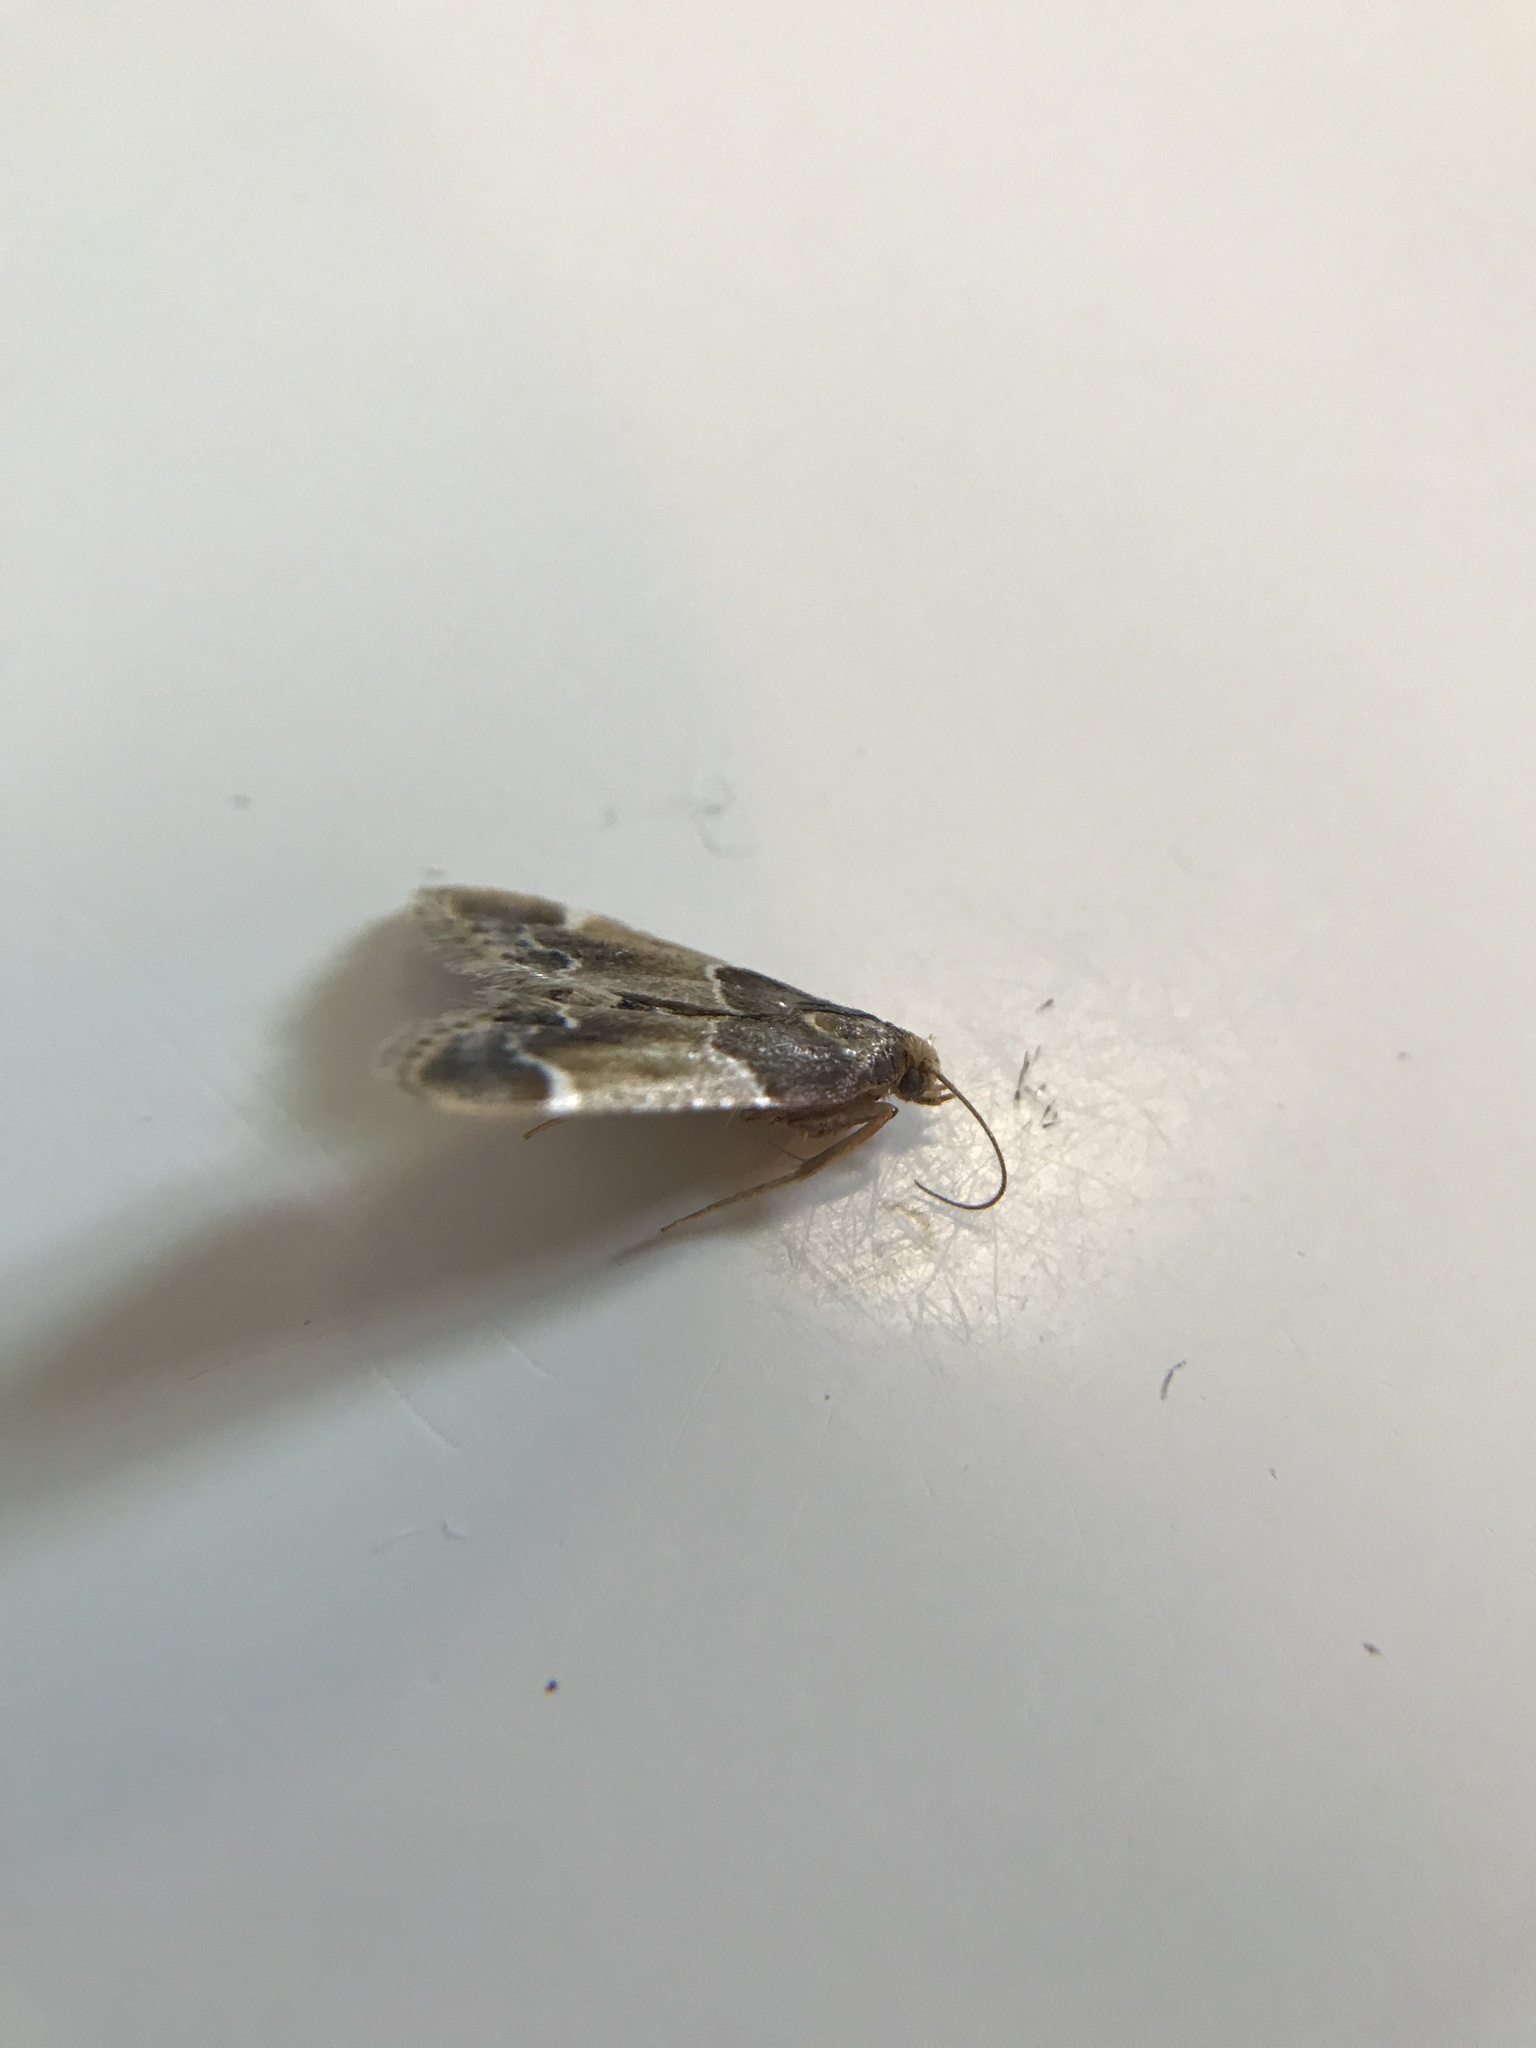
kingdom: Animalia
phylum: Arthropoda
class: Insecta
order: Lepidoptera
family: Pyralidae
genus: Pyralis
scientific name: Pyralis farinalis
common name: Meal moth
